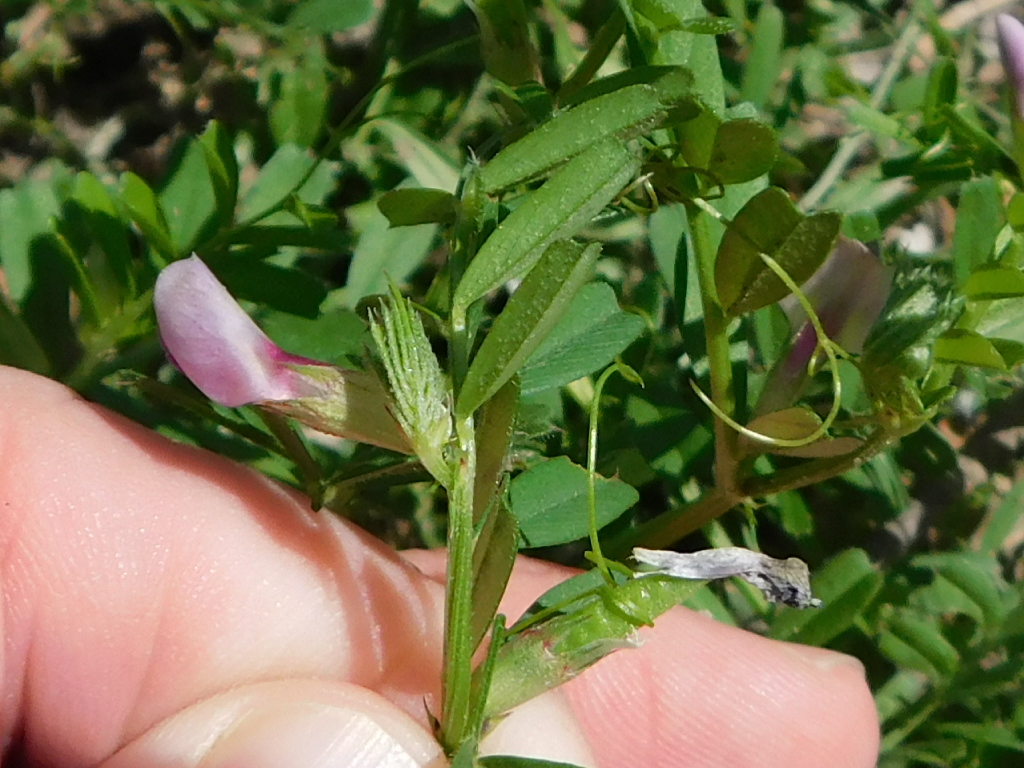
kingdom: Plantae
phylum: Tracheophyta
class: Magnoliopsida
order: Fabales
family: Fabaceae
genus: Vicia
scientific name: Vicia sativa
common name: Garden vetch
